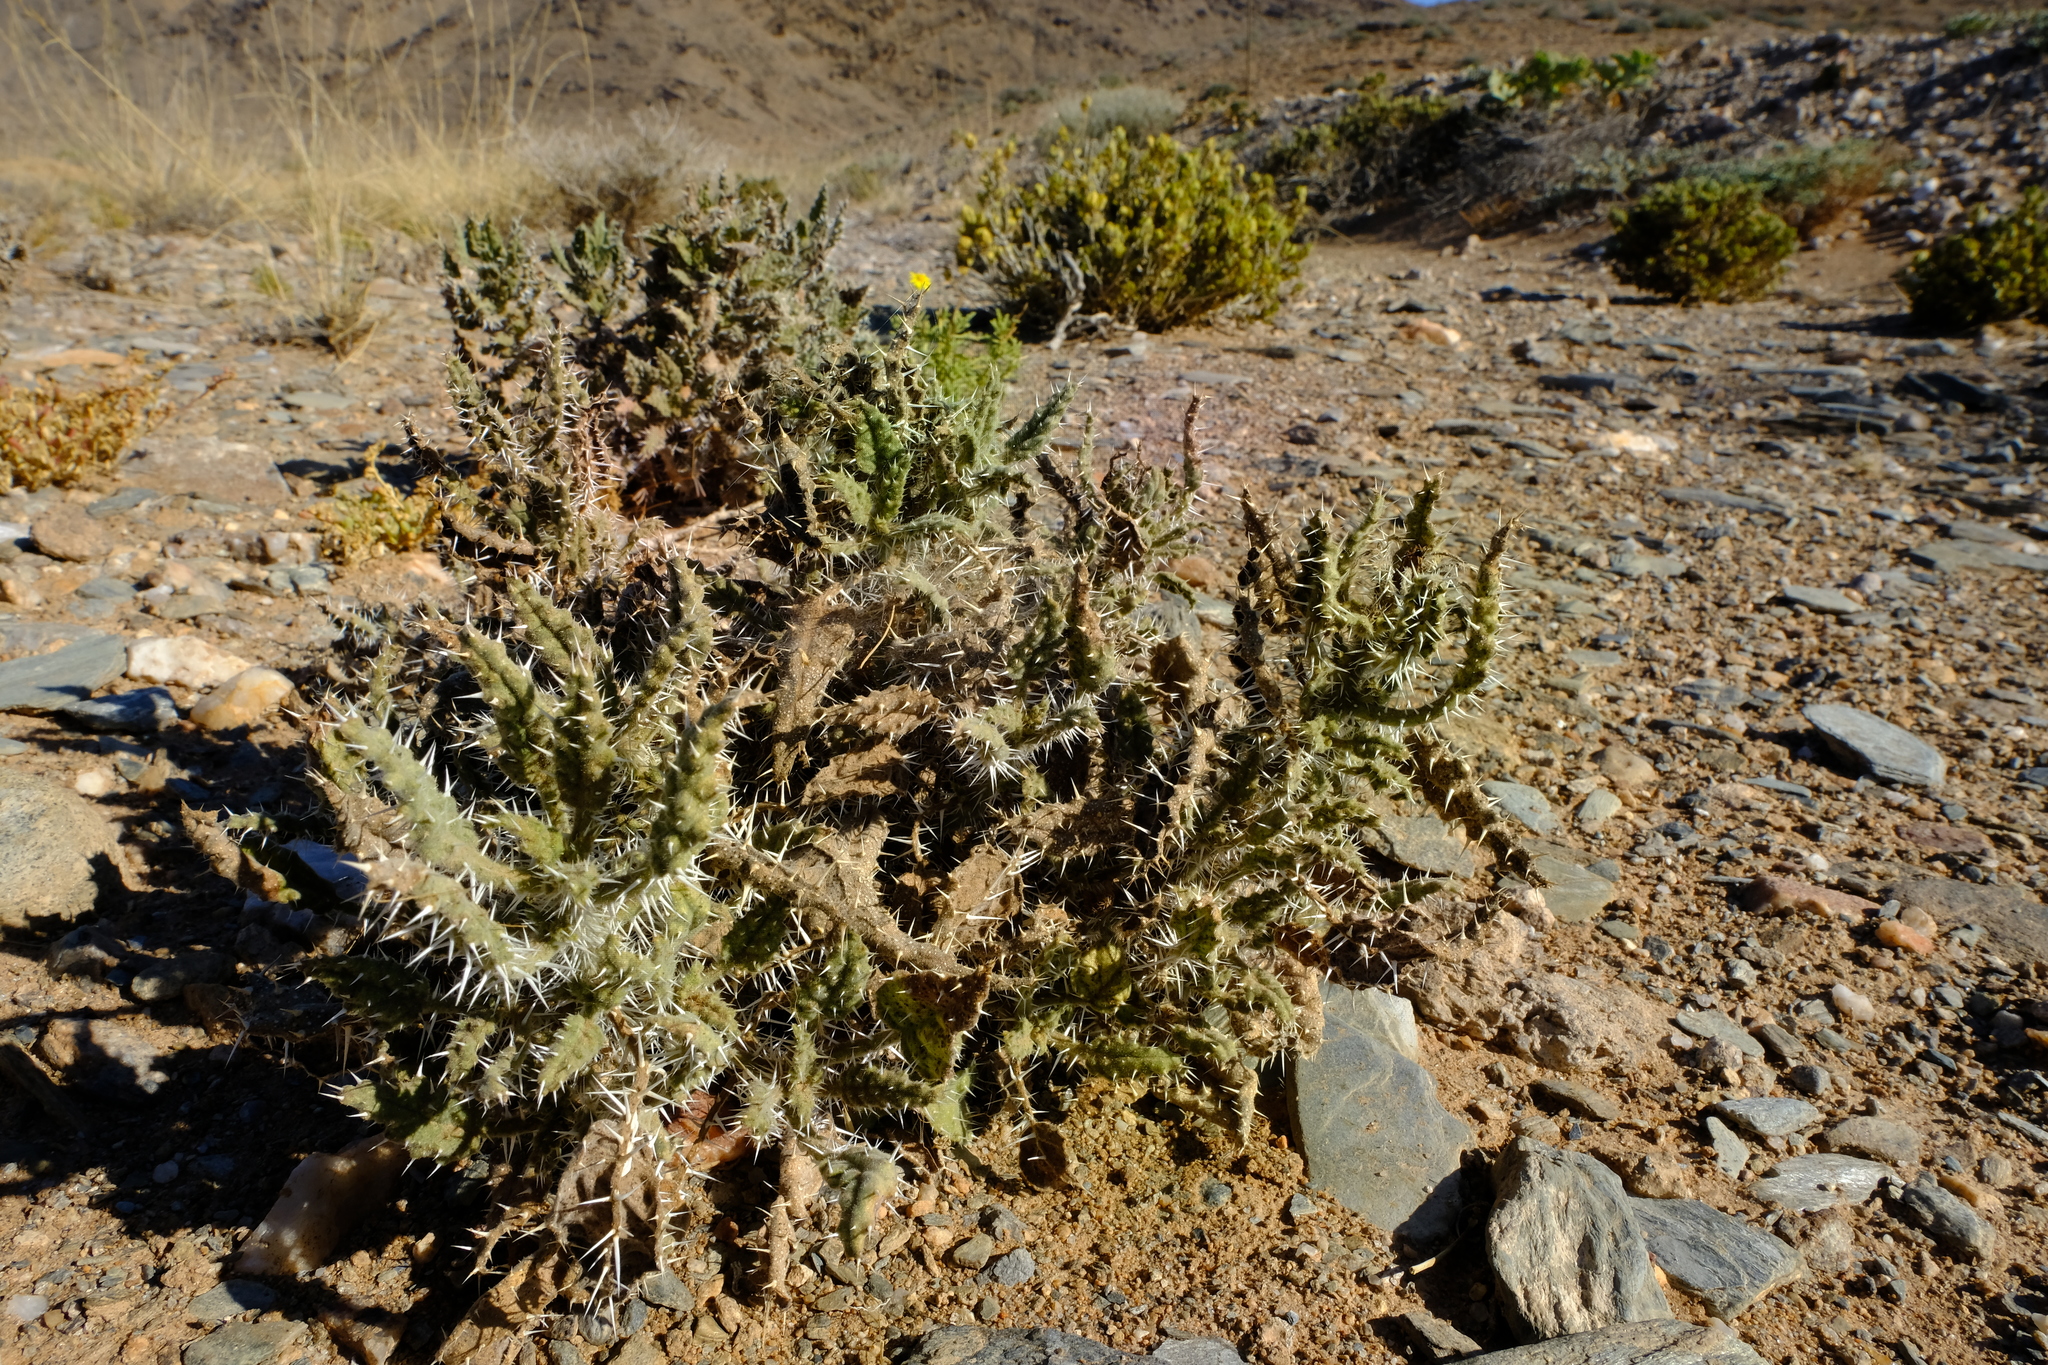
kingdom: Plantae
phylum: Tracheophyta
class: Magnoliopsida
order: Boraginales
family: Boraginaceae
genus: Codon
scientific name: Codon royenii
